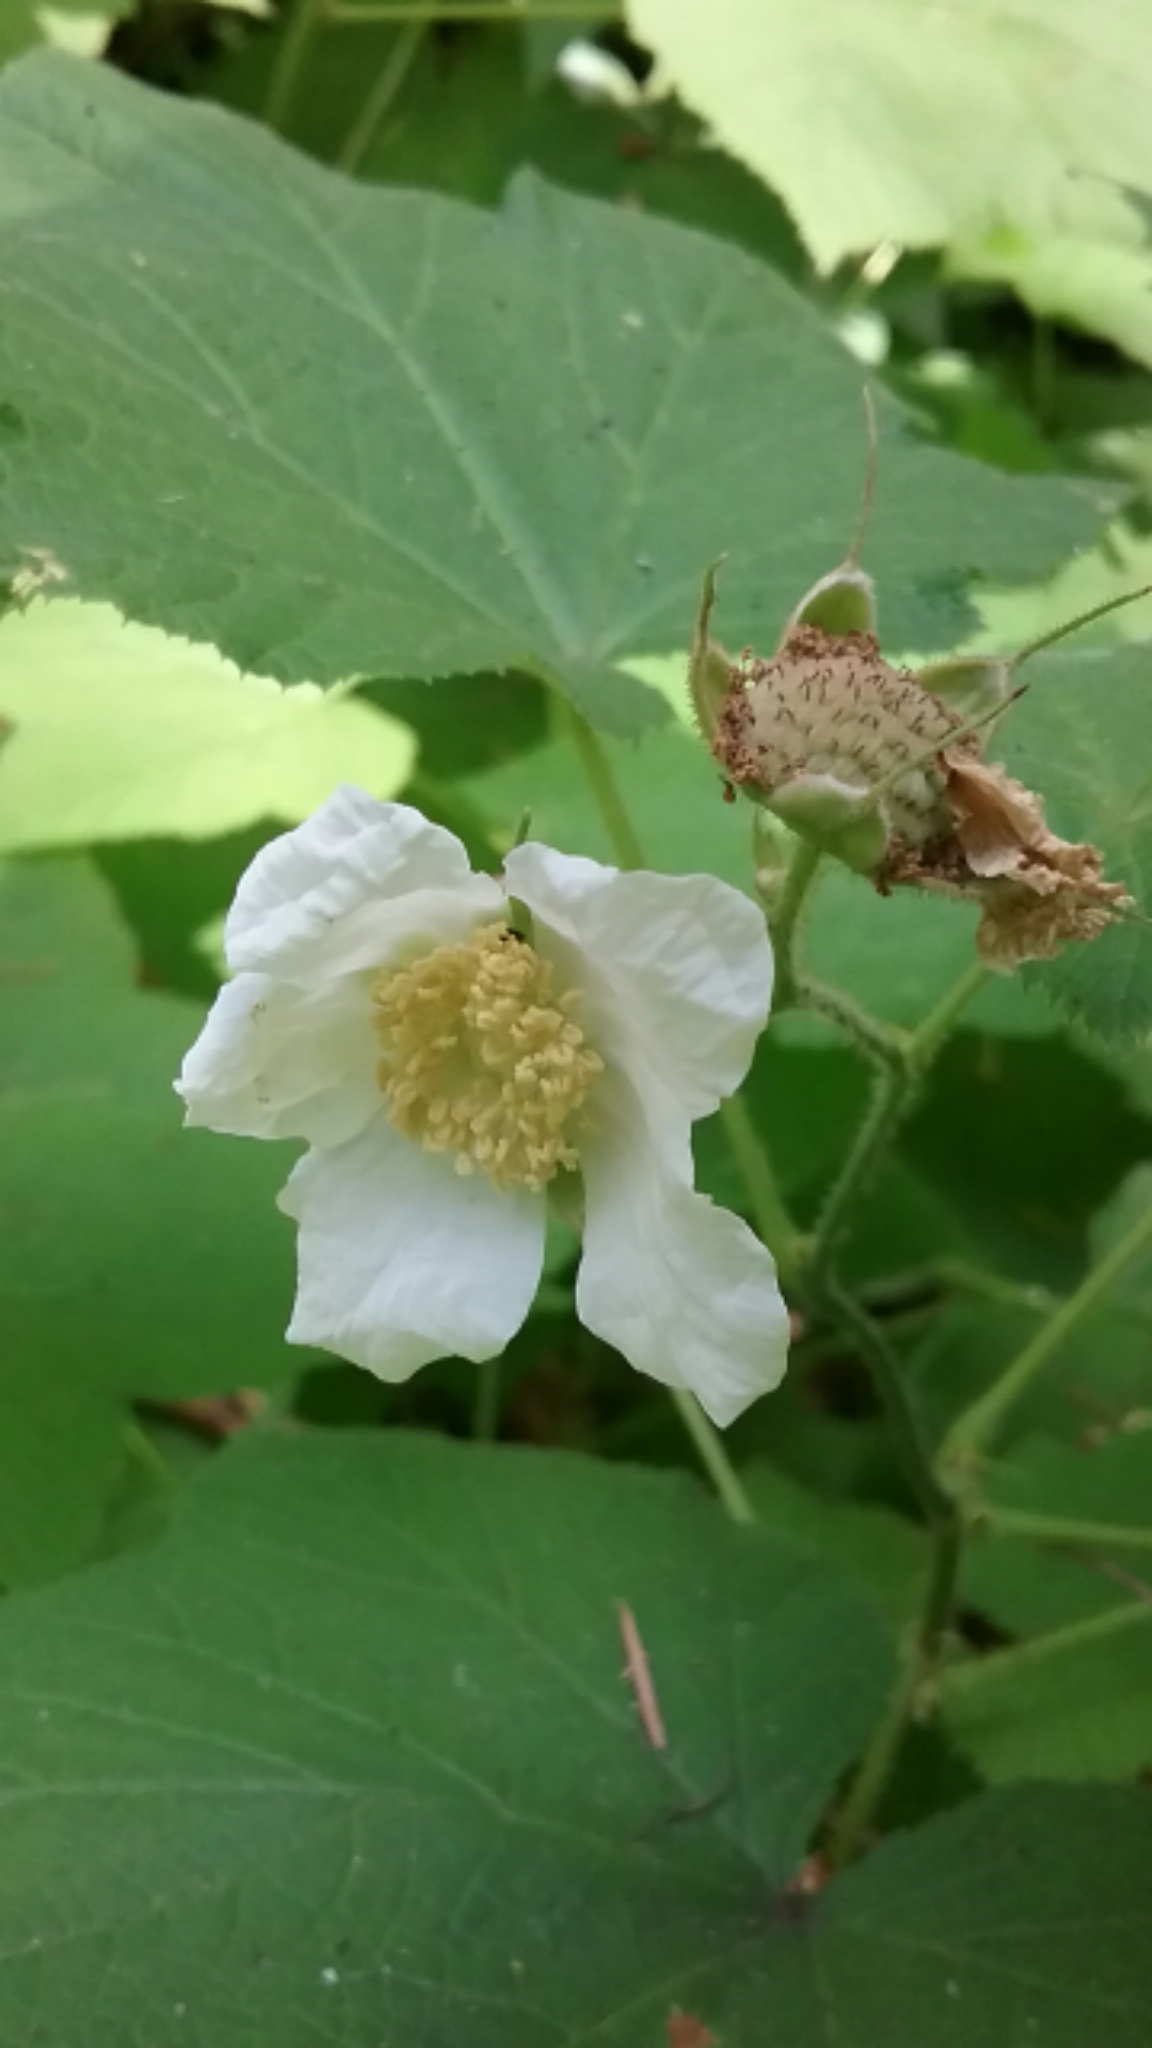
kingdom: Plantae
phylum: Tracheophyta
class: Magnoliopsida
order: Rosales
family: Rosaceae
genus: Rubus
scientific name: Rubus parviflorus
